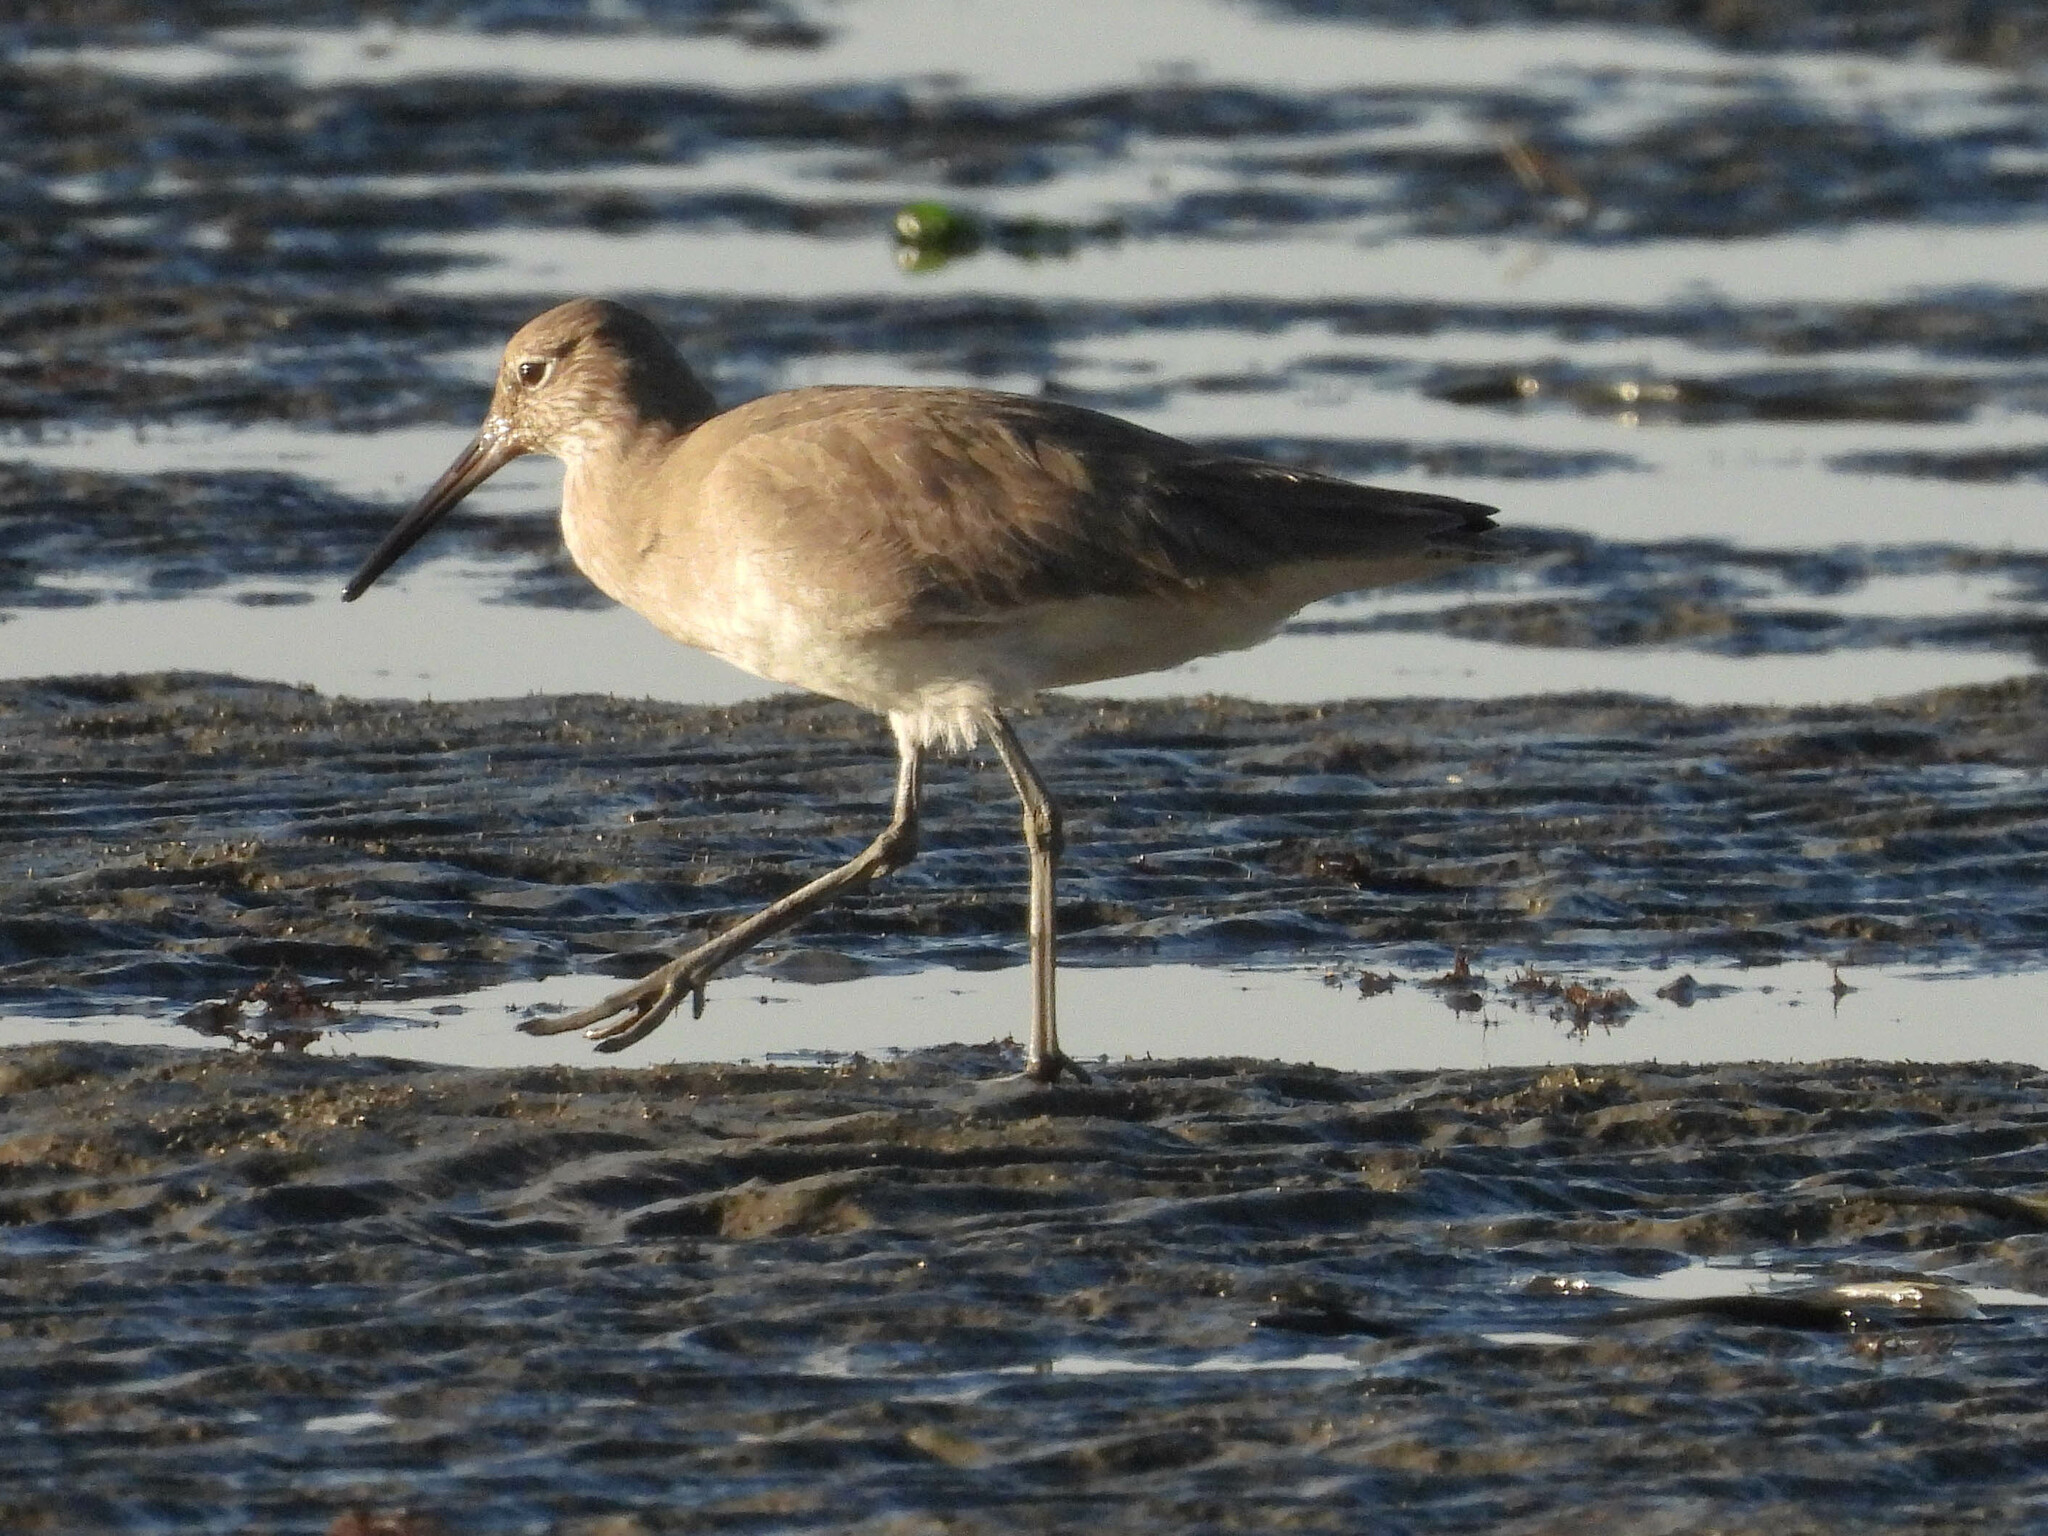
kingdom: Animalia
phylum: Chordata
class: Aves
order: Charadriiformes
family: Scolopacidae
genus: Tringa
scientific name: Tringa semipalmata
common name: Willet
